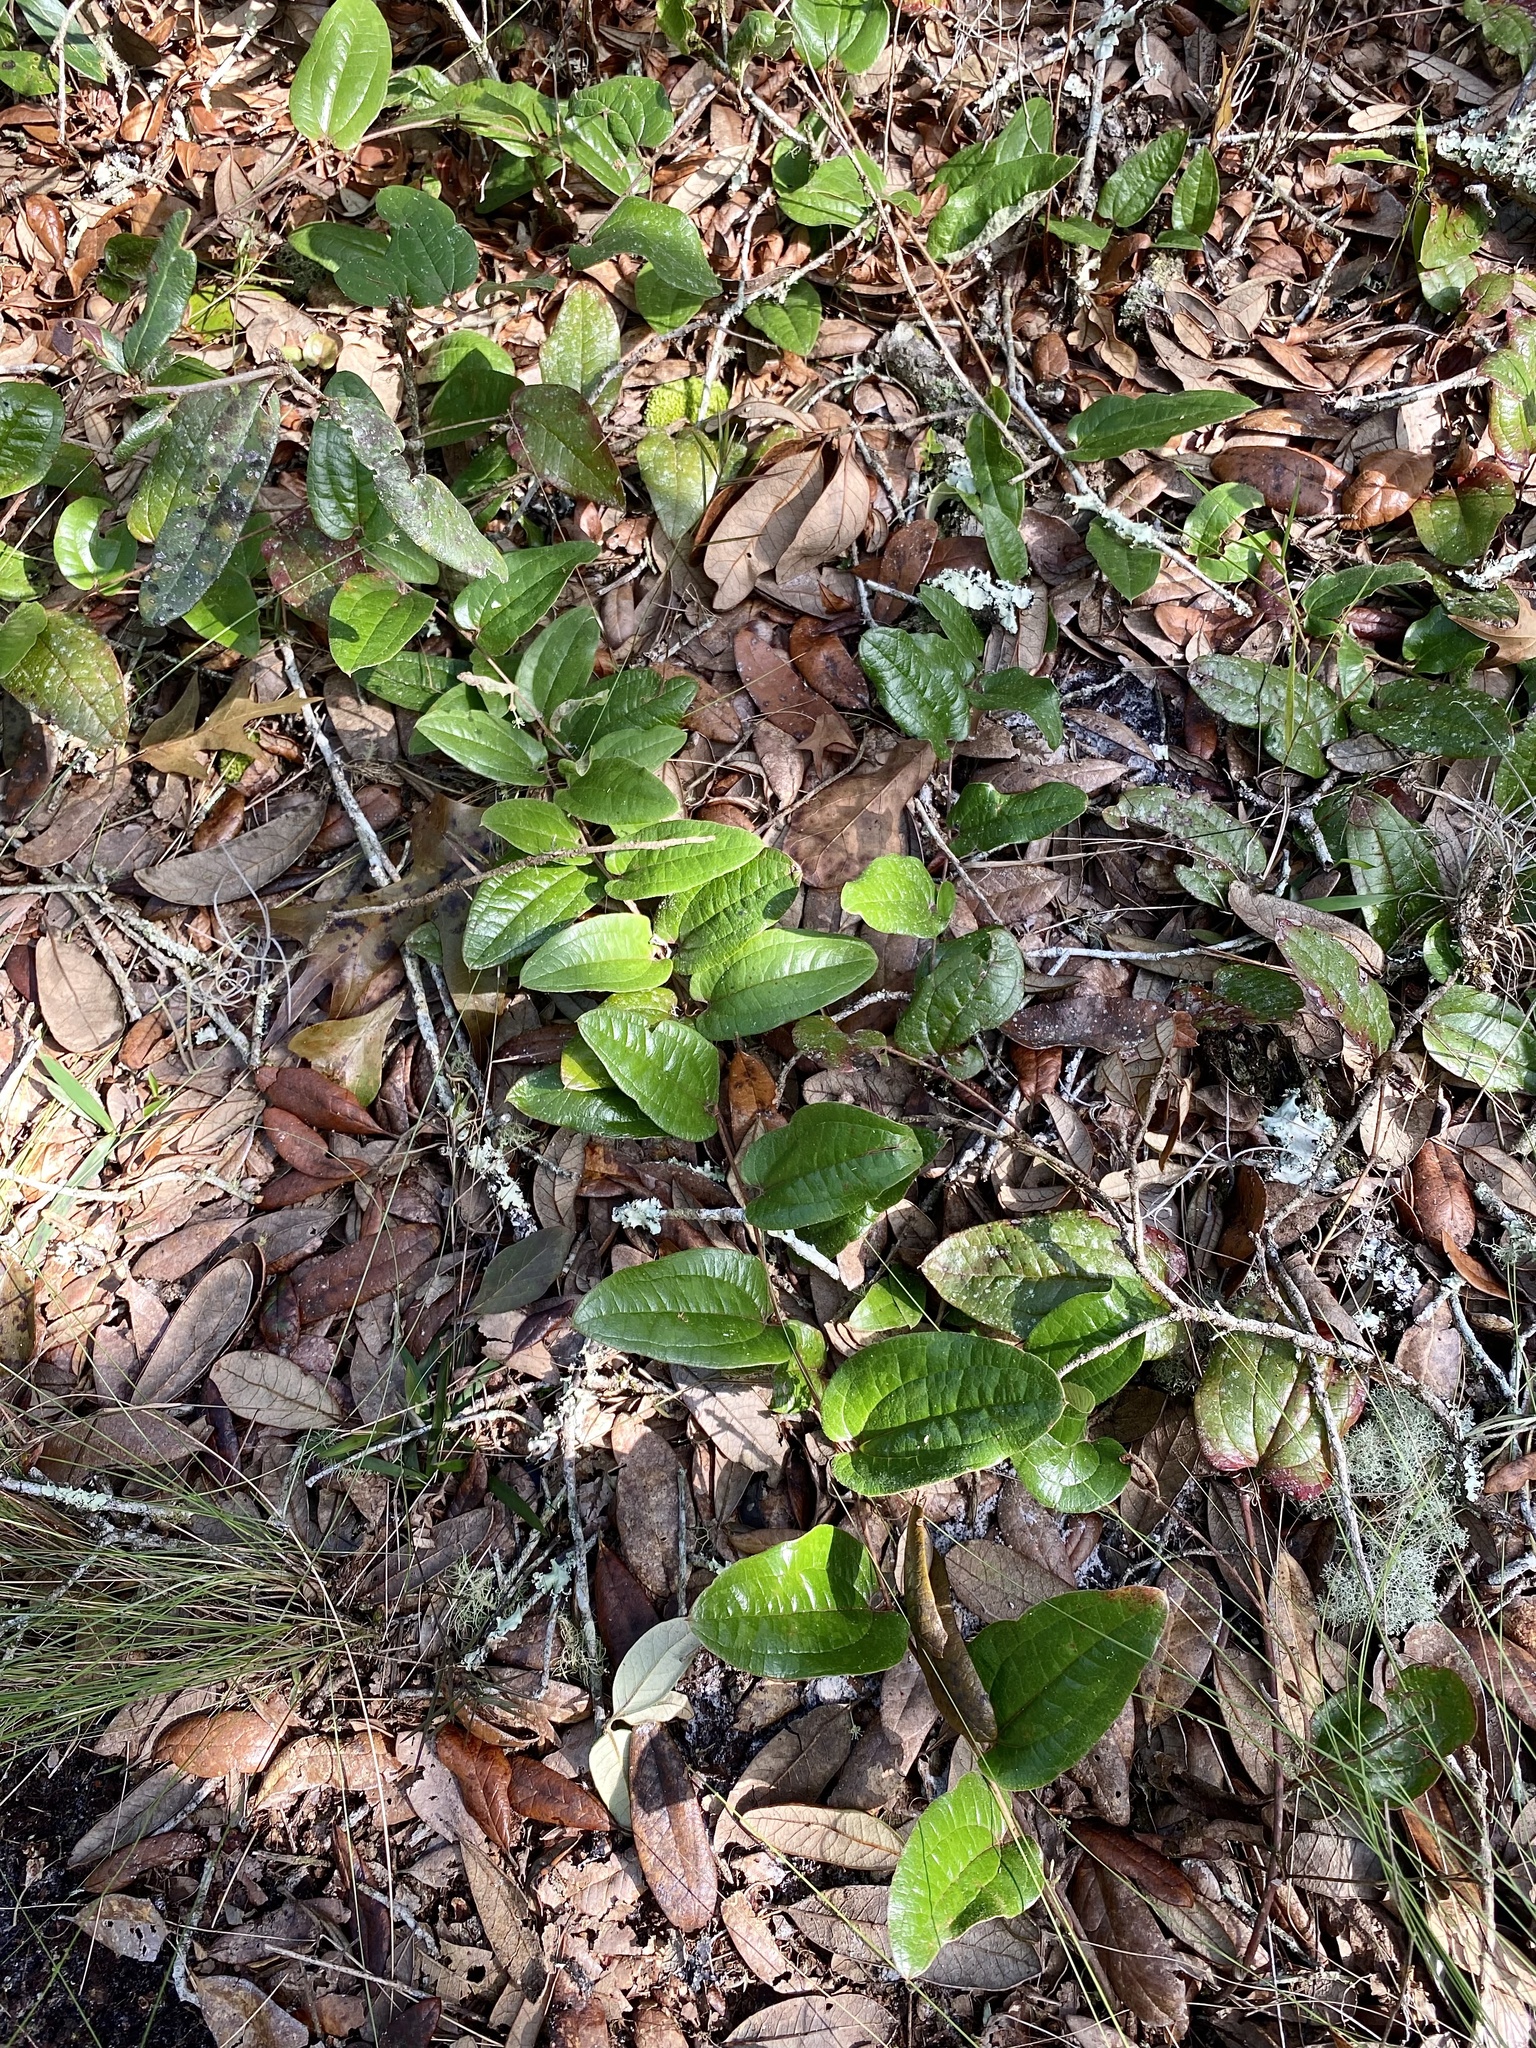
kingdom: Plantae
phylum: Tracheophyta
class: Liliopsida
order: Liliales
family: Smilacaceae
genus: Smilax
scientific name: Smilax pumila
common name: Sarsaparilla-vine
